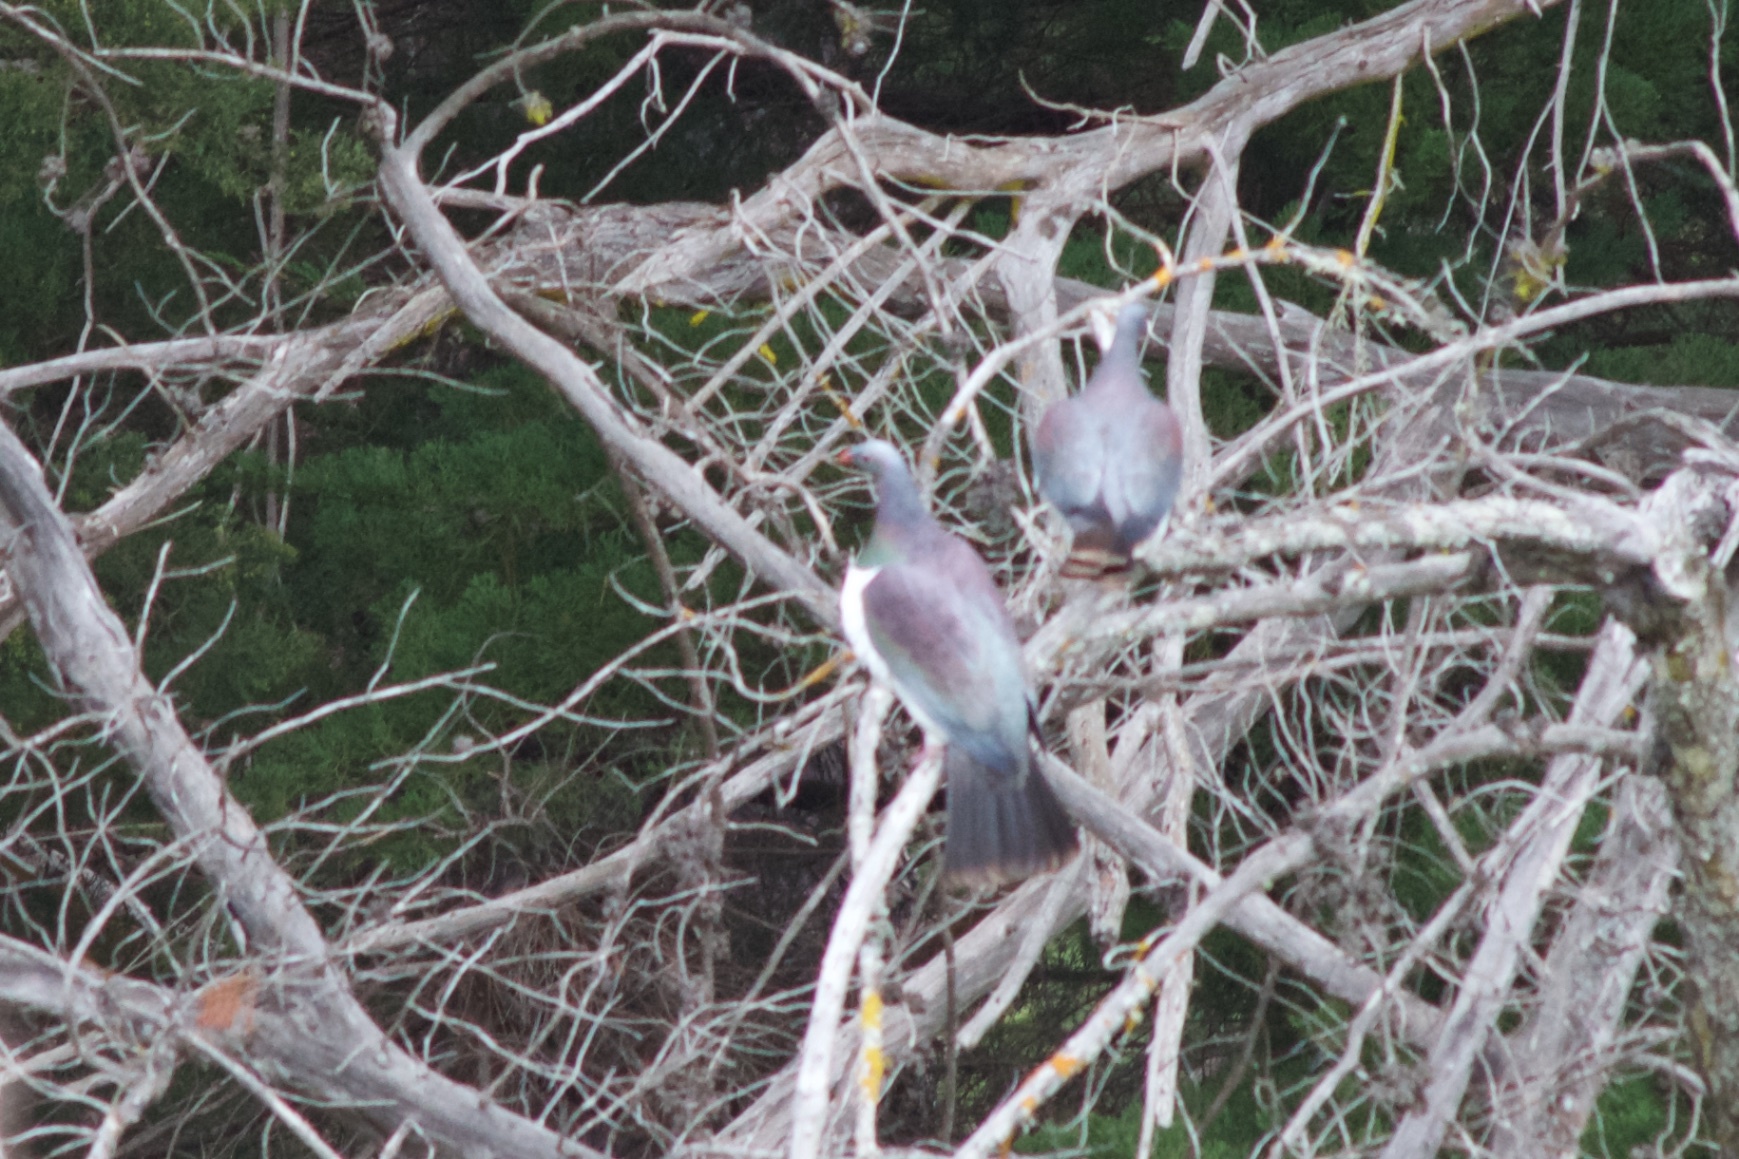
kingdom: Animalia
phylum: Chordata
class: Aves
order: Columbiformes
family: Columbidae
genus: Hemiphaga
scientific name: Hemiphaga novaeseelandiae
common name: New zealand pigeon
